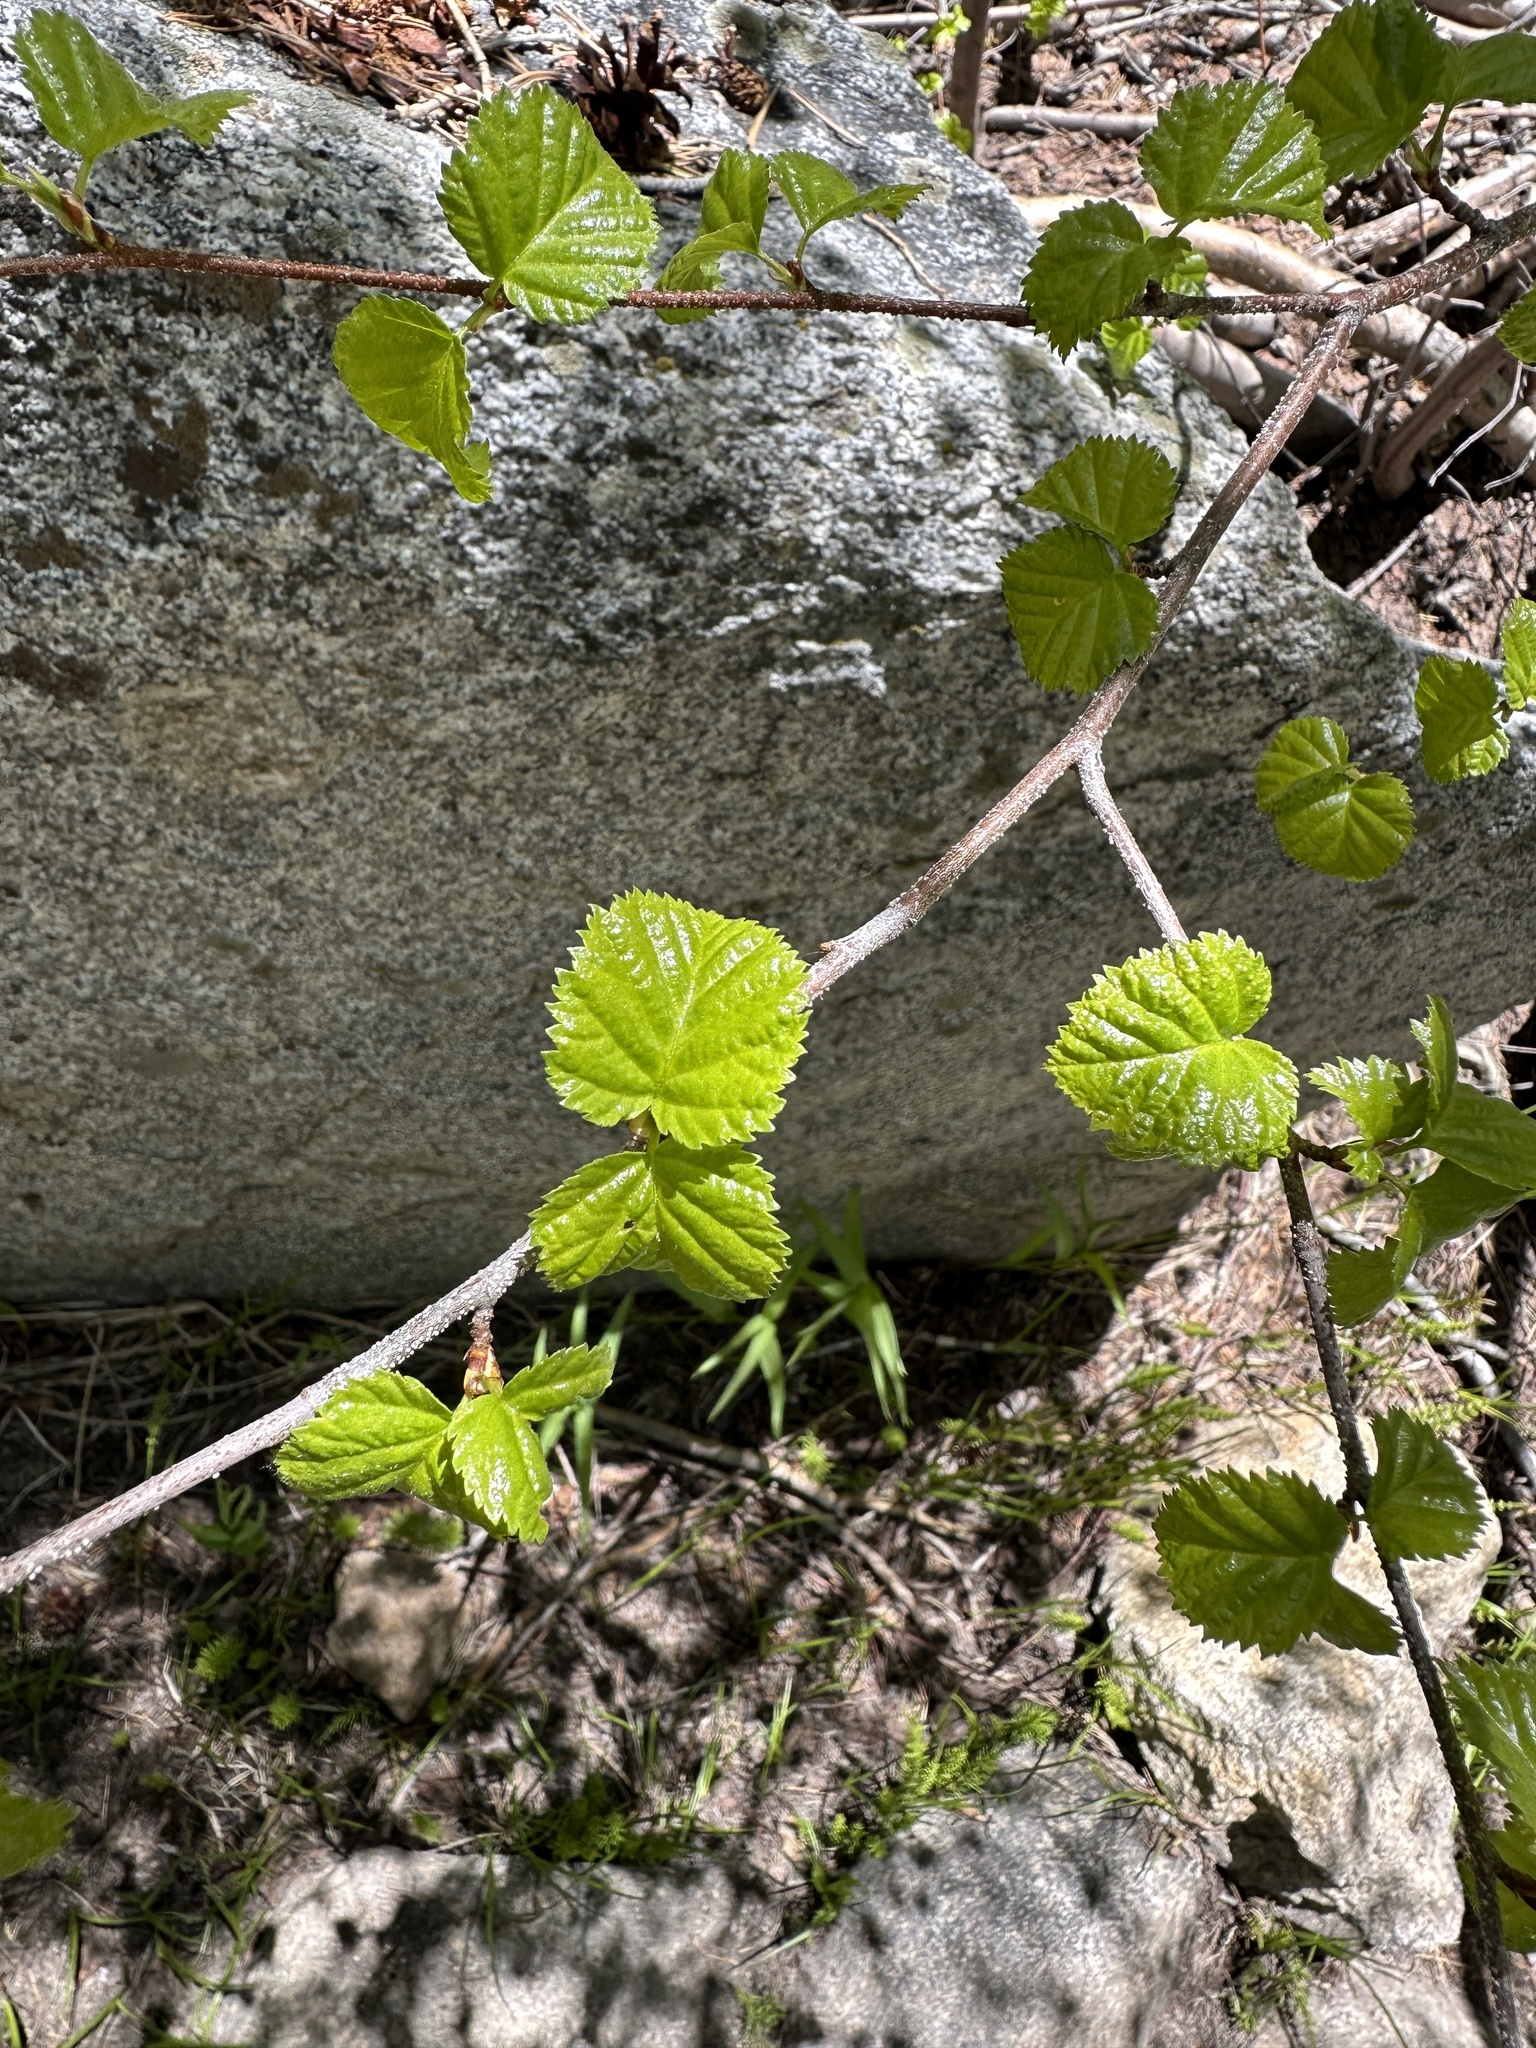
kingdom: Plantae
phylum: Tracheophyta
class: Magnoliopsida
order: Fagales
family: Betulaceae
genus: Betula
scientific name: Betula occidentalis
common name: River birch
